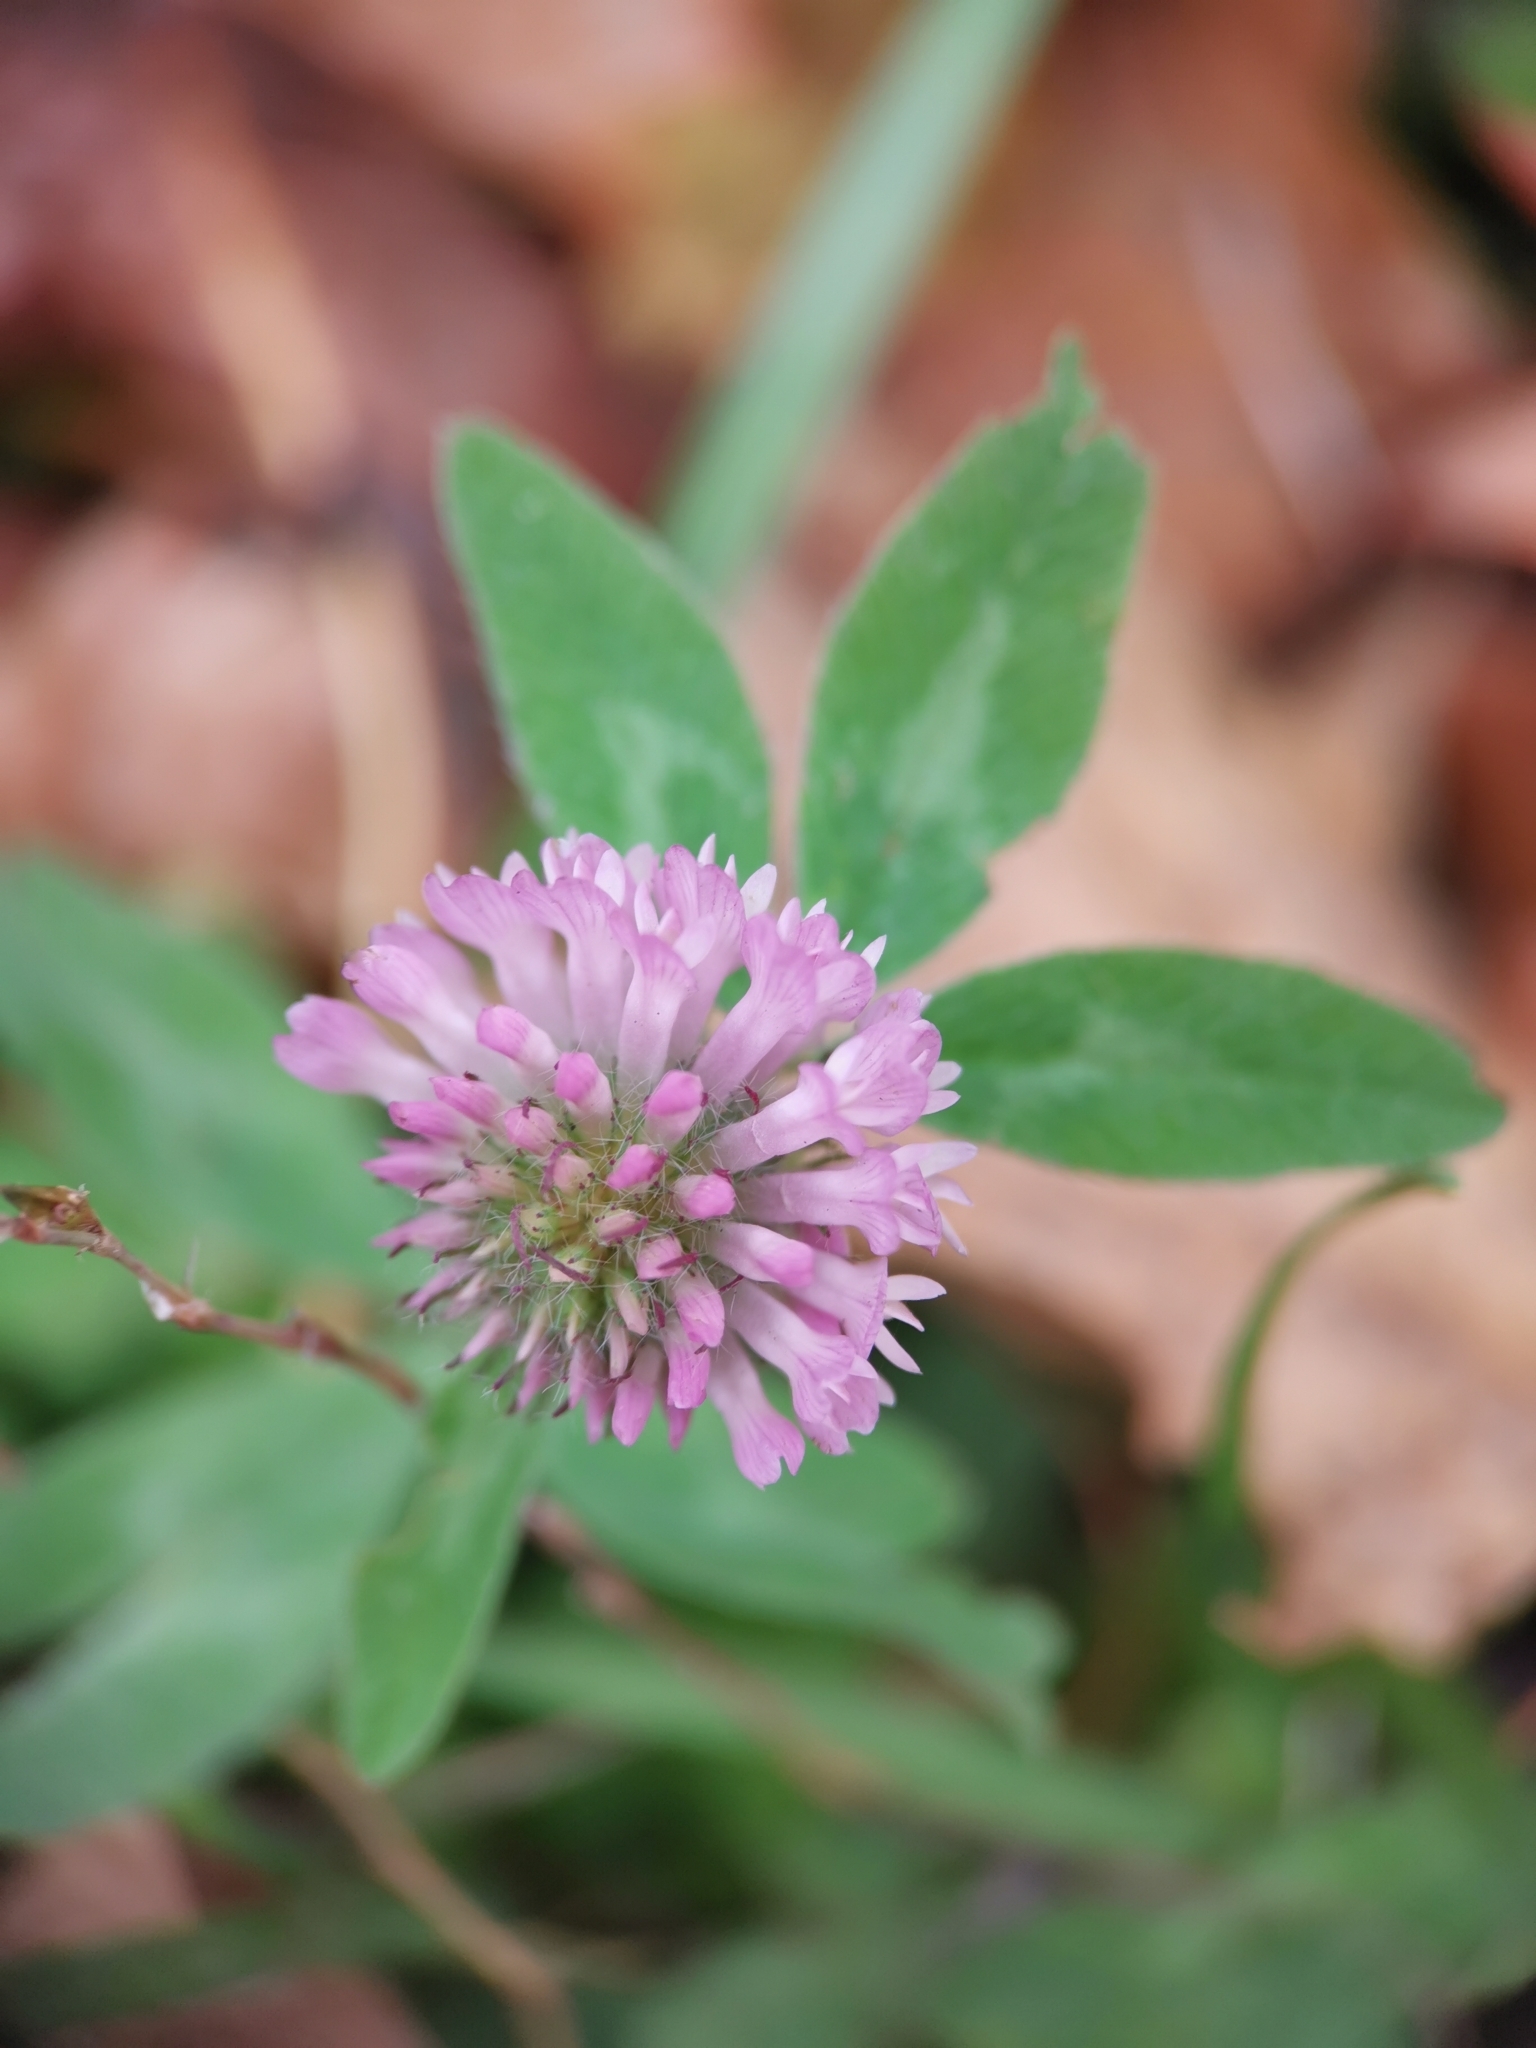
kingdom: Plantae
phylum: Tracheophyta
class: Magnoliopsida
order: Fabales
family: Fabaceae
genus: Trifolium
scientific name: Trifolium pratense
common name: Red clover
